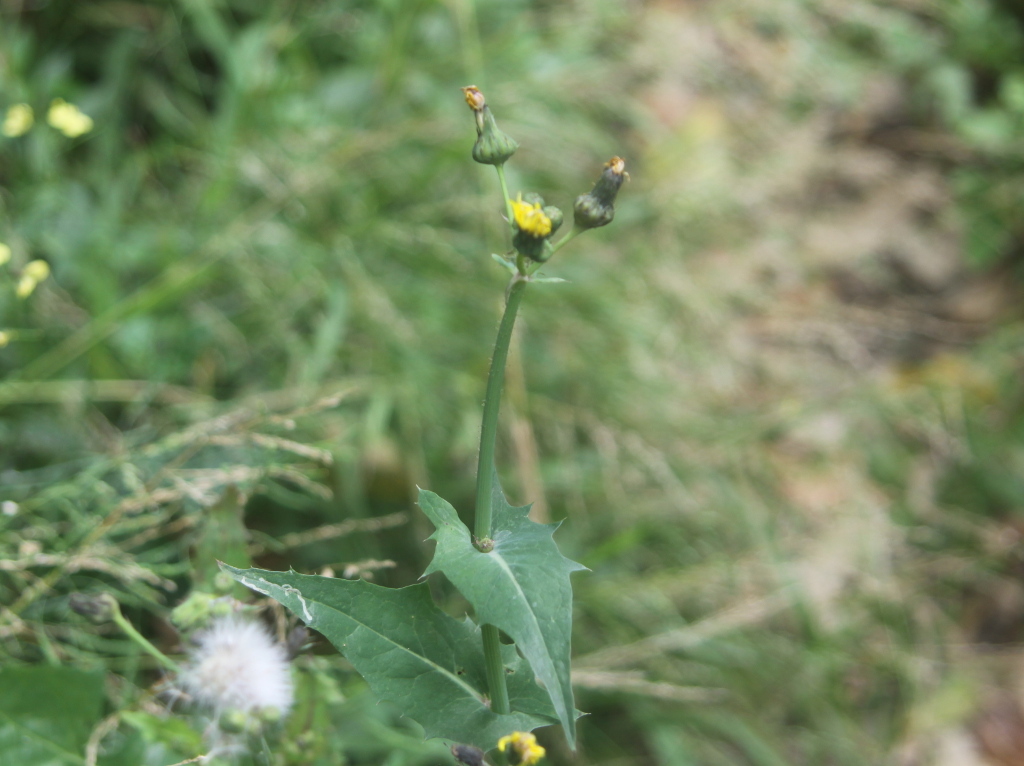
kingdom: Plantae
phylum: Tracheophyta
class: Magnoliopsida
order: Asterales
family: Asteraceae
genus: Sonchus
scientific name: Sonchus oleraceus
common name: Common sowthistle
